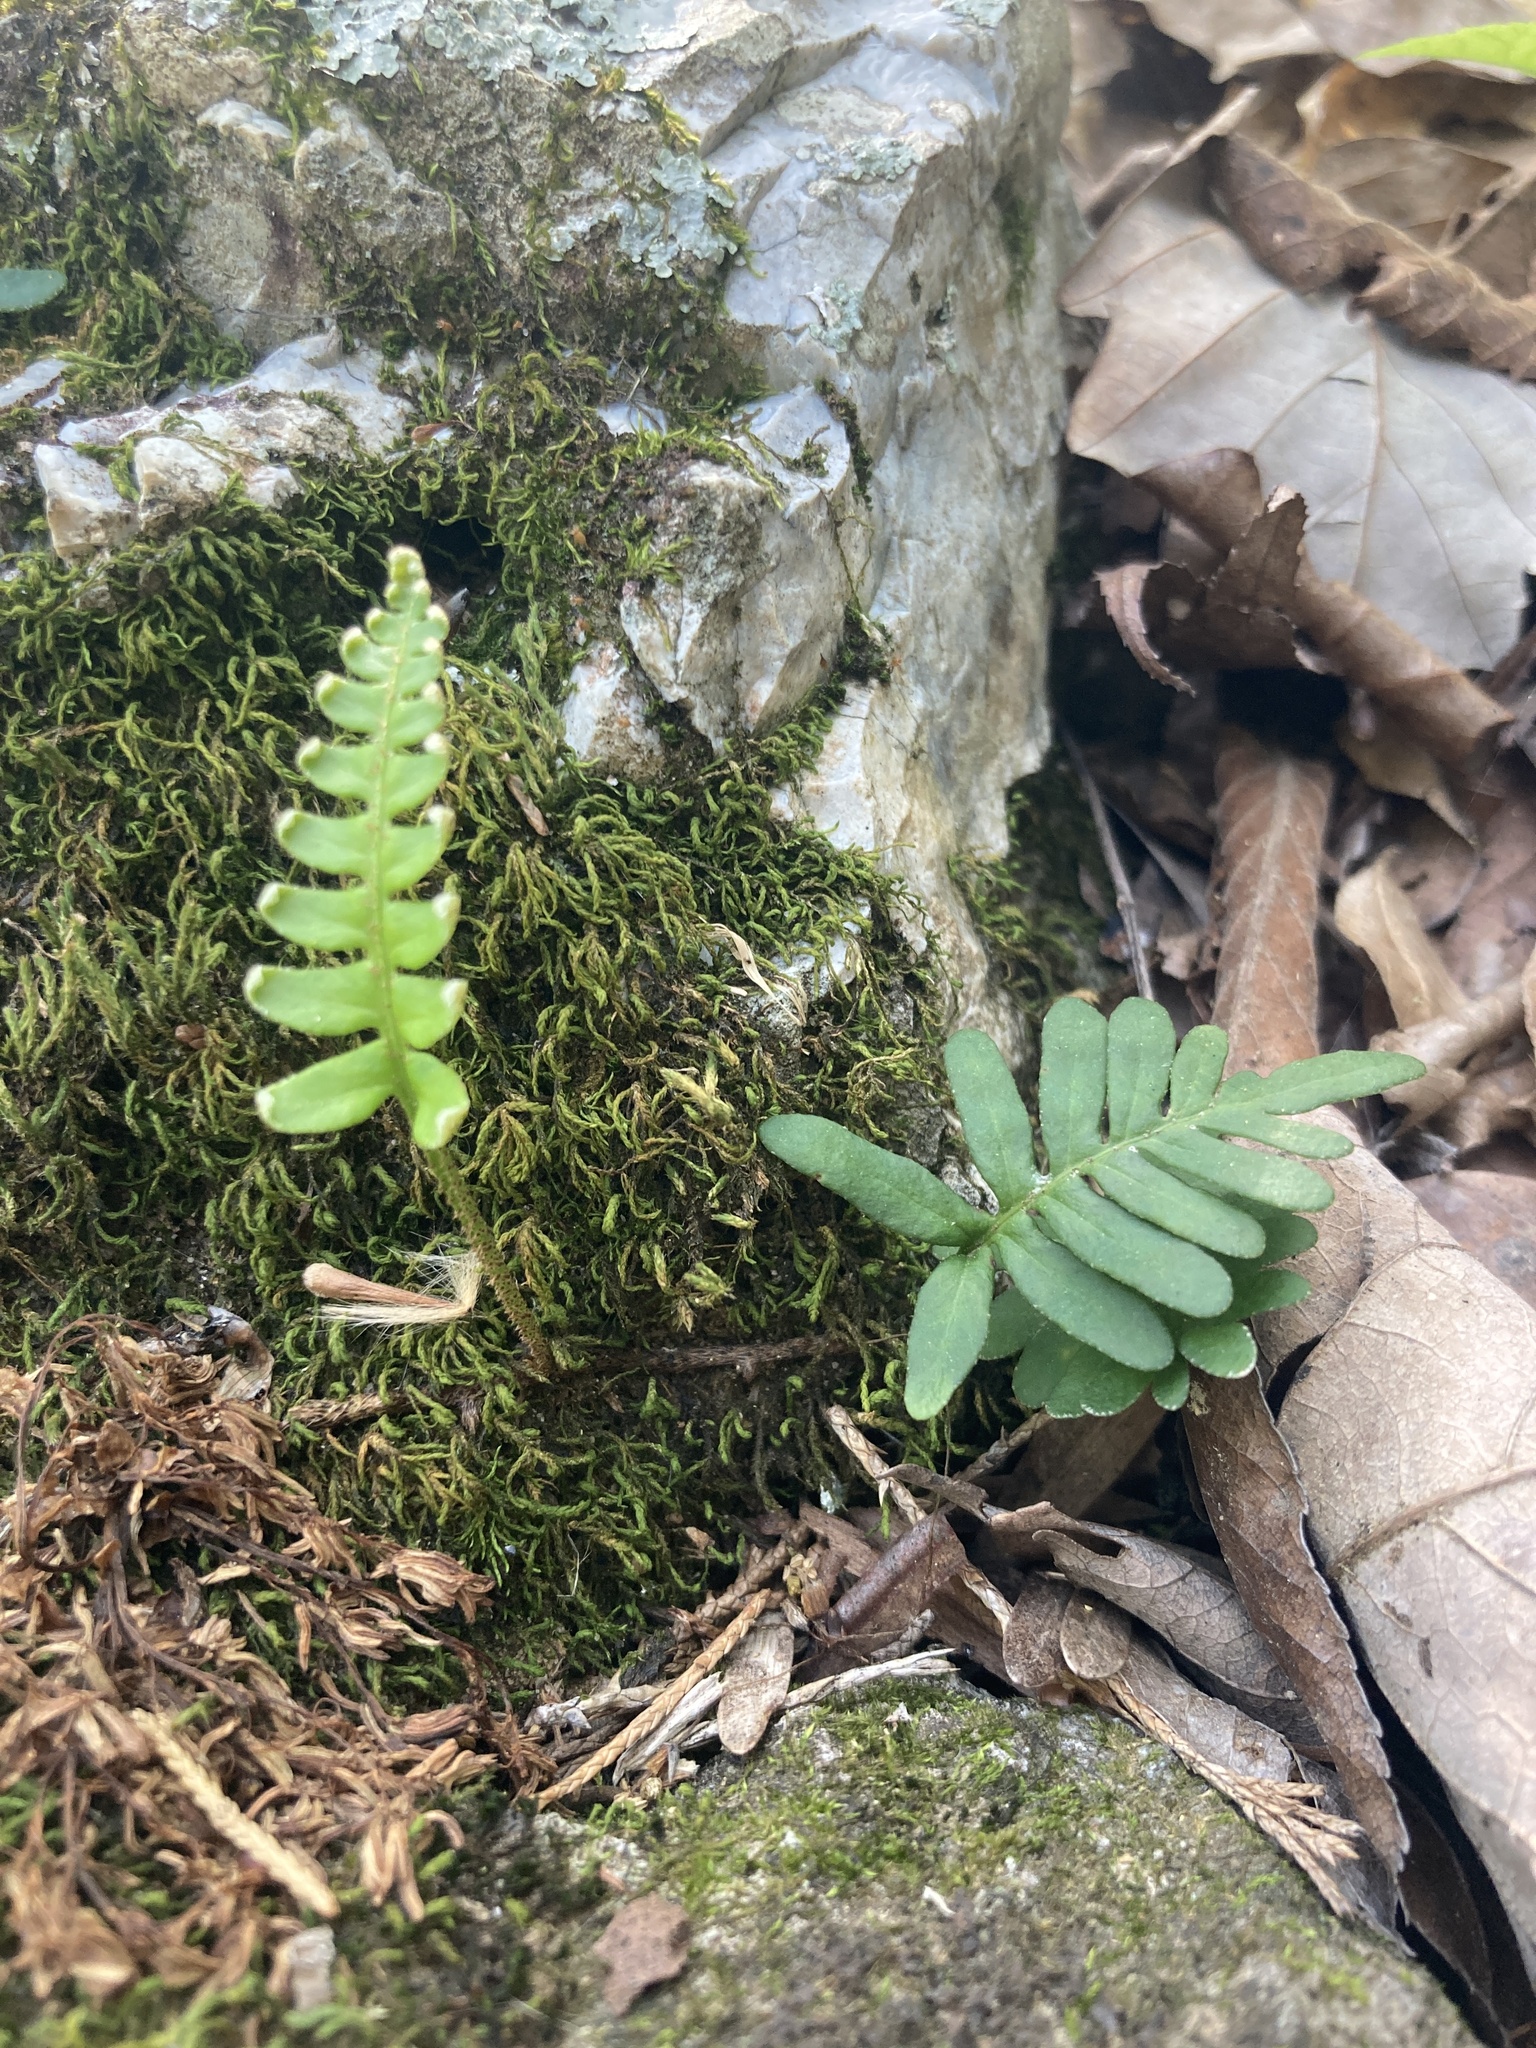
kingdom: Plantae
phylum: Tracheophyta
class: Polypodiopsida
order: Polypodiales
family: Polypodiaceae
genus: Pleopeltis
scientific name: Pleopeltis michauxiana
